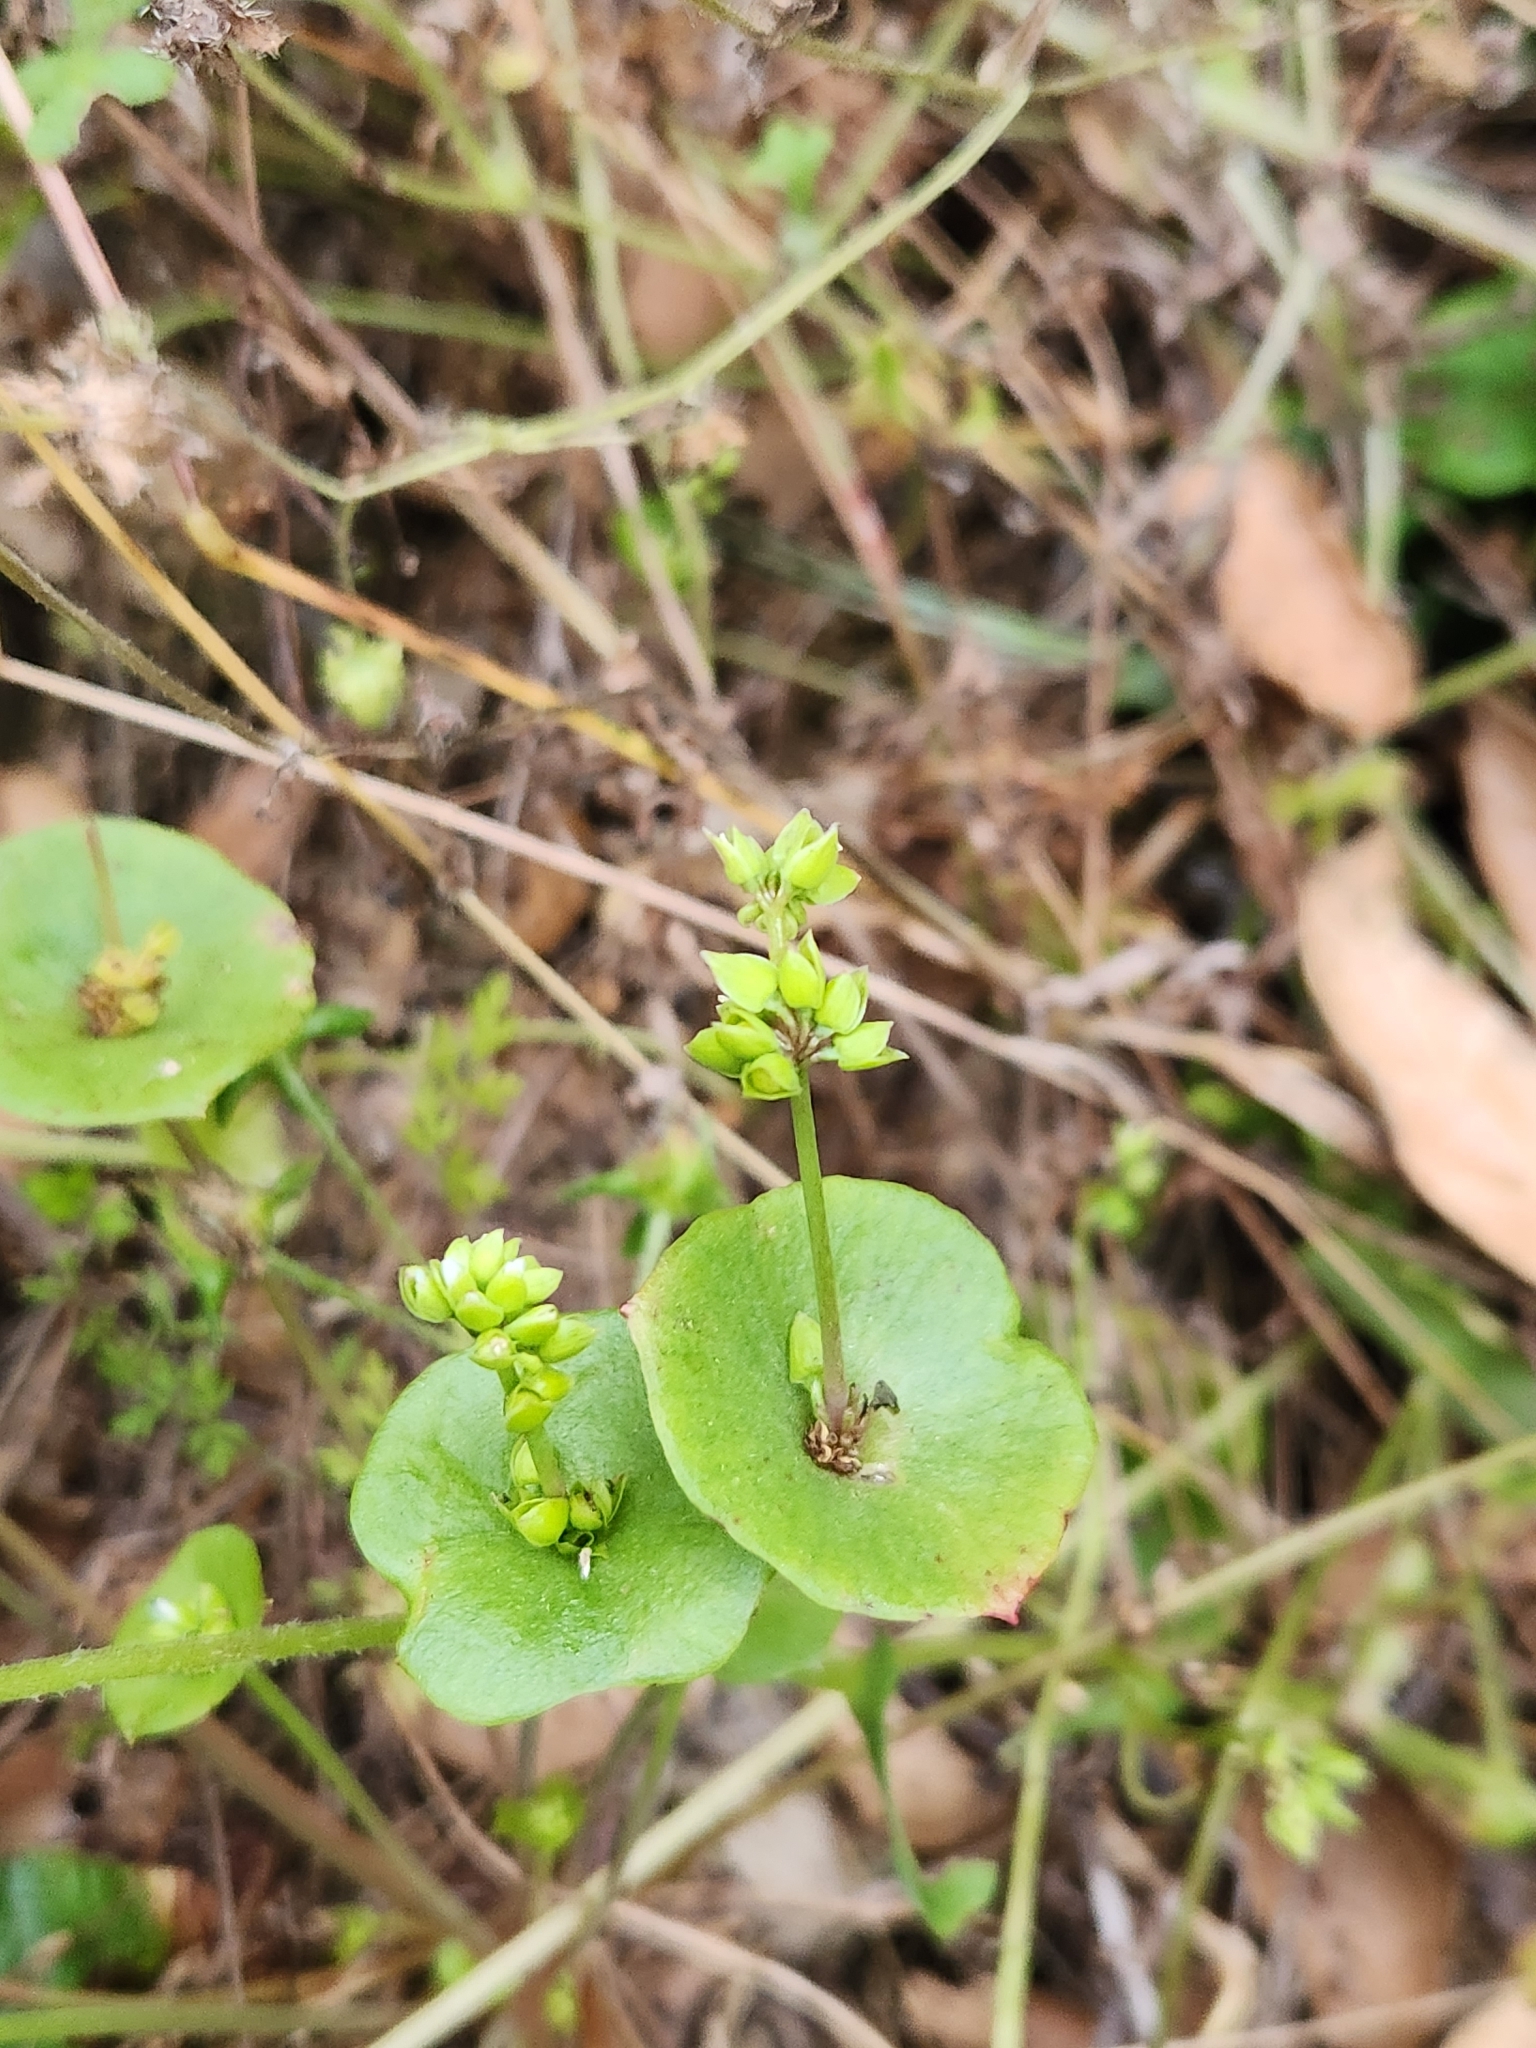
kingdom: Plantae
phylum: Tracheophyta
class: Magnoliopsida
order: Caryophyllales
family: Montiaceae
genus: Claytonia
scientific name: Claytonia perfoliata
